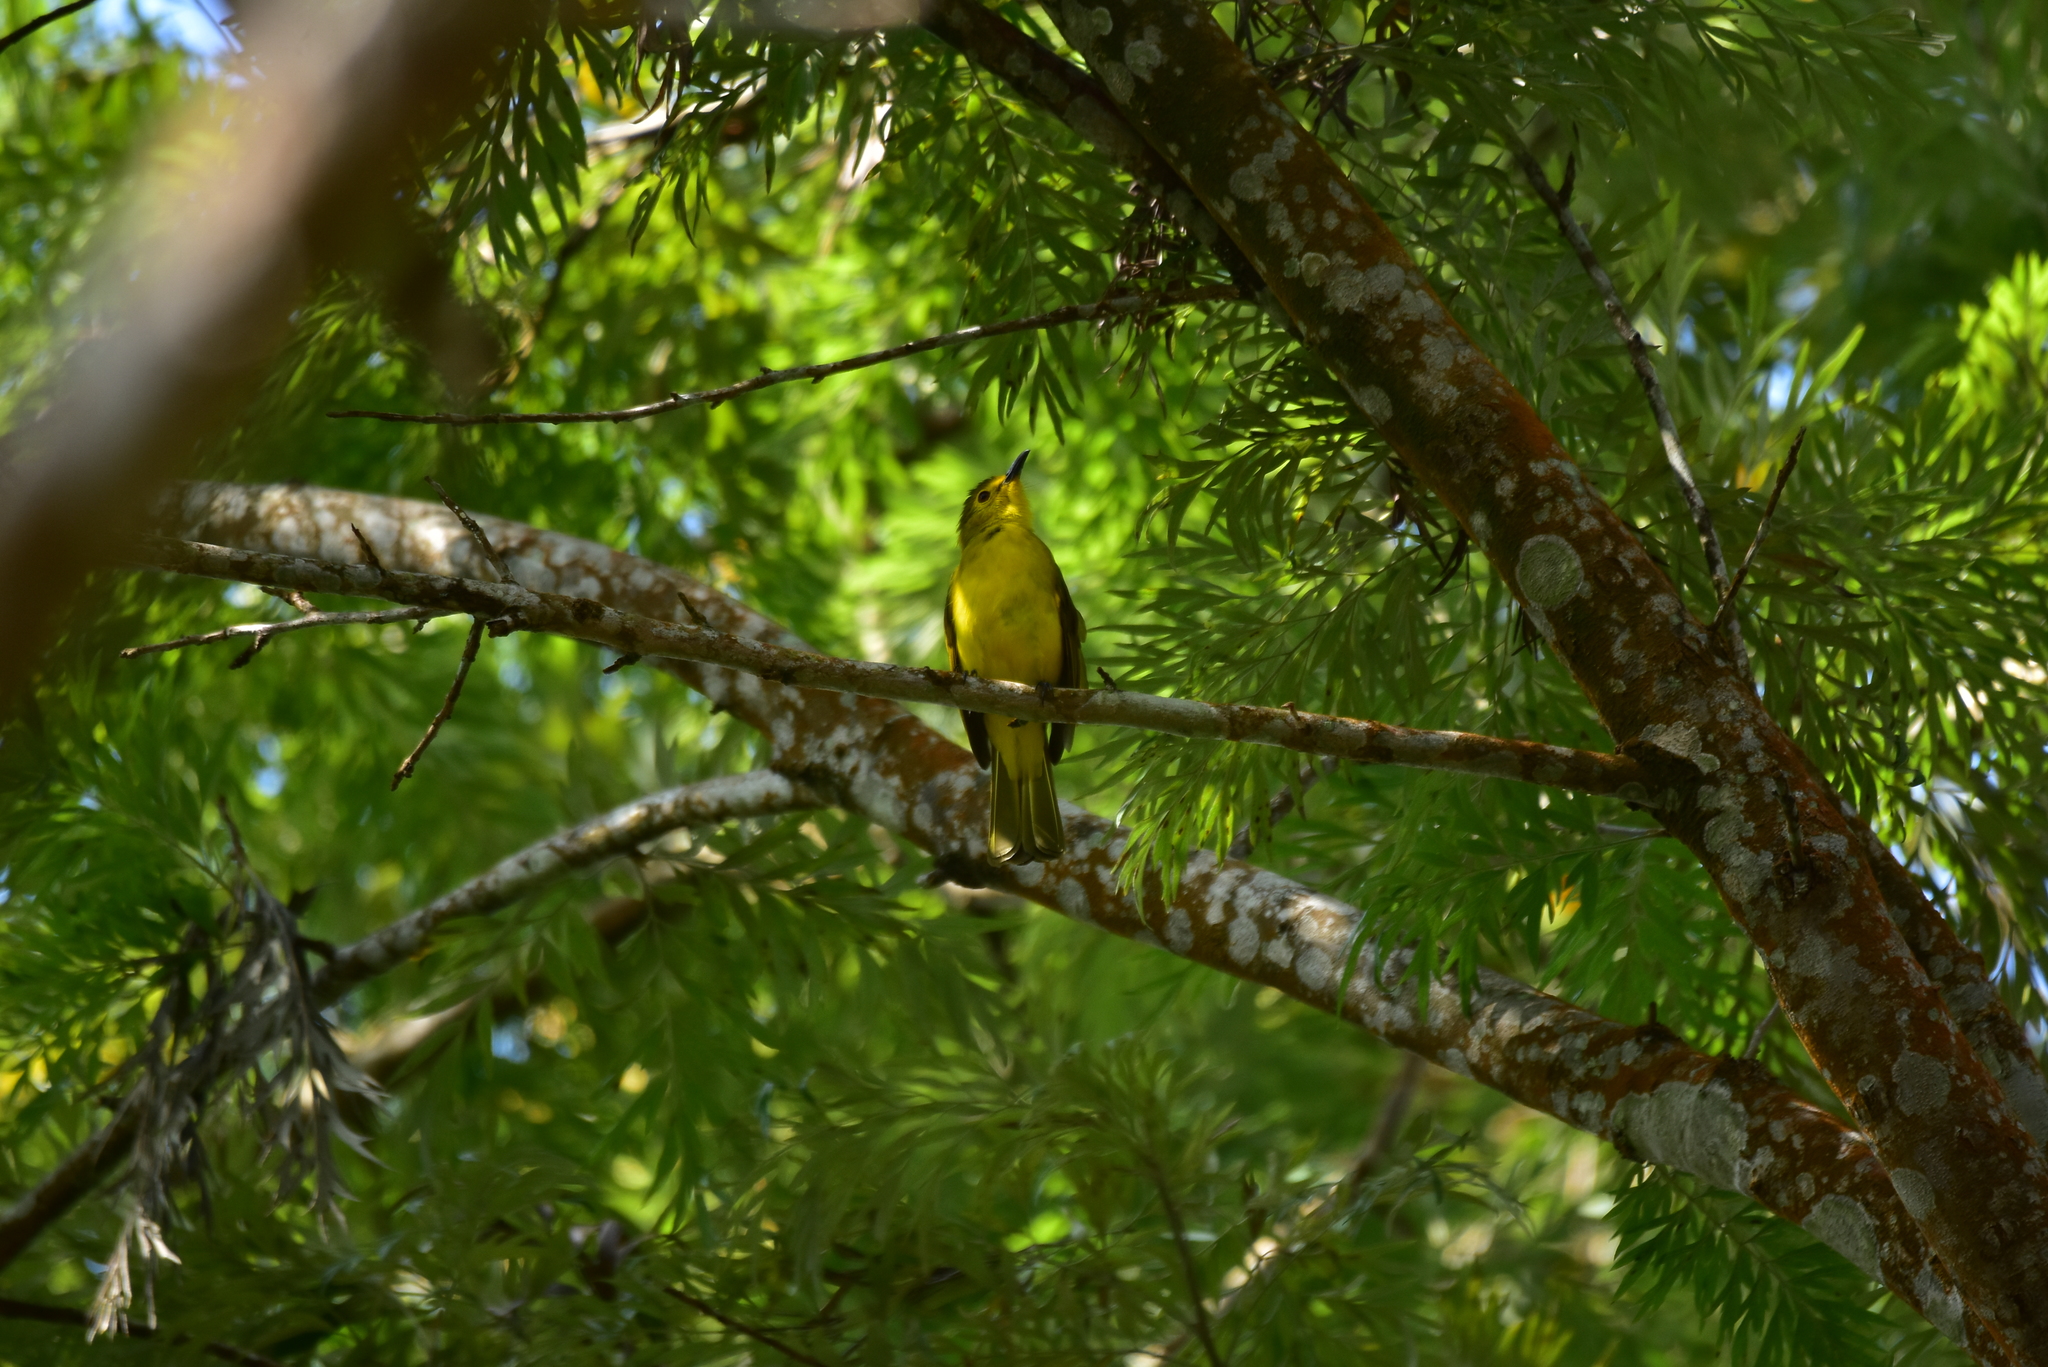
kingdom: Animalia
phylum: Chordata
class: Aves
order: Passeriformes
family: Pycnonotidae
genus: Acritillas
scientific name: Acritillas indica
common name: Yellow-browed bulbul
